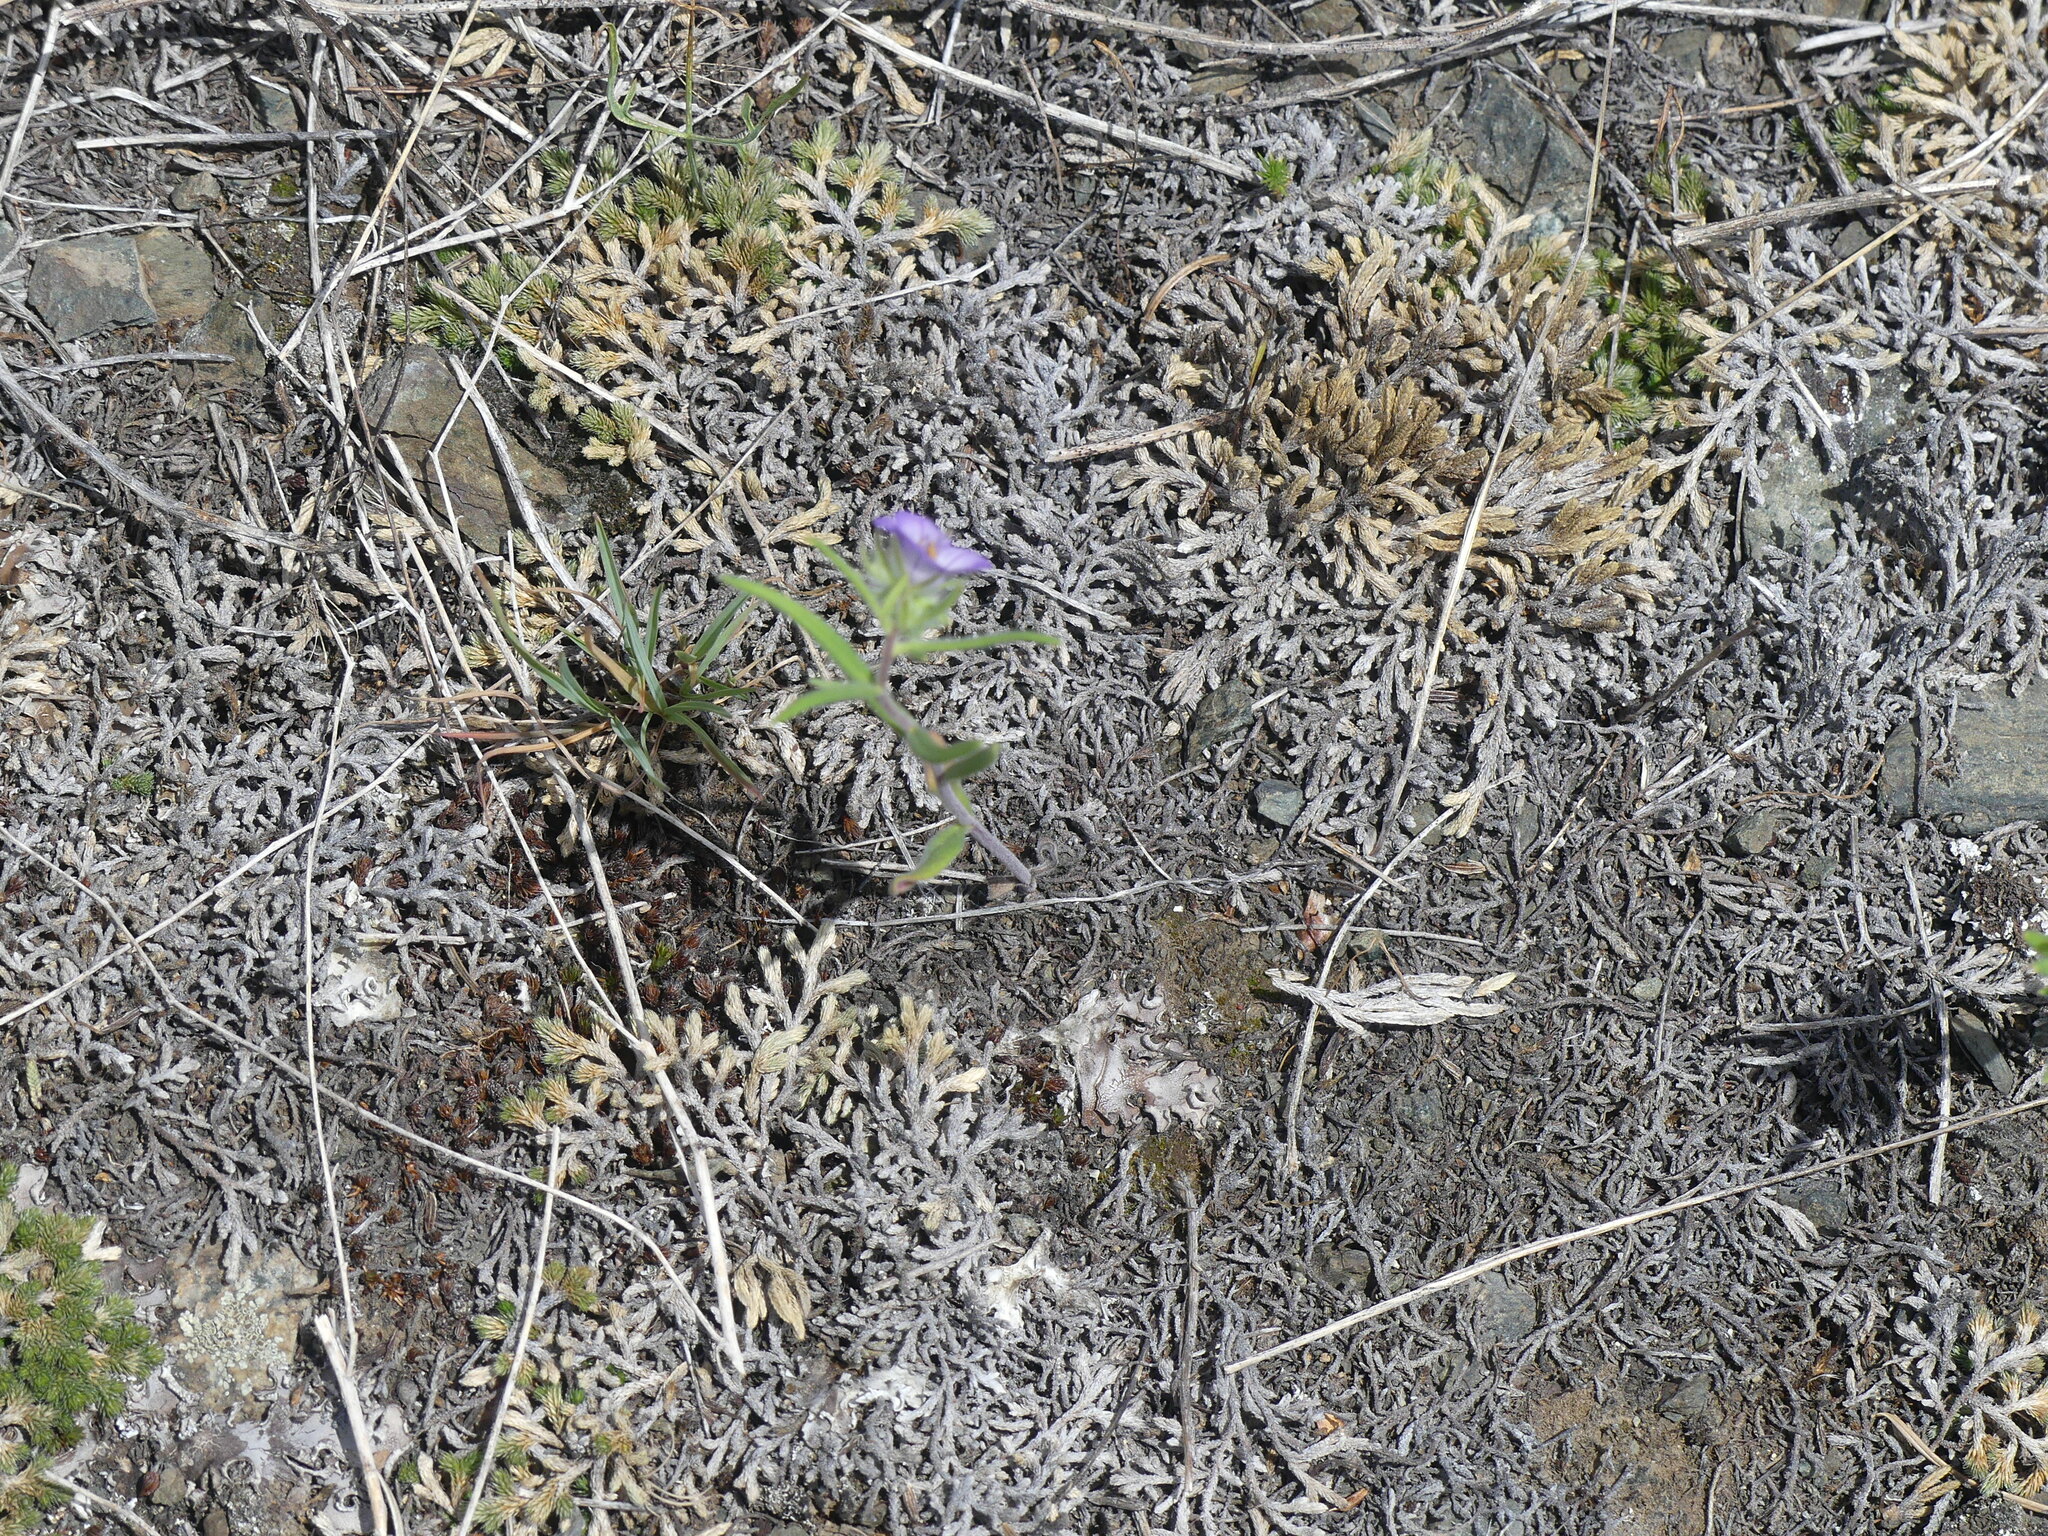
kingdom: Plantae
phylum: Tracheophyta
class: Magnoliopsida
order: Boraginales
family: Hydrophyllaceae
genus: Phacelia
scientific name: Phacelia linearis
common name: Linear-leaved phacelia
